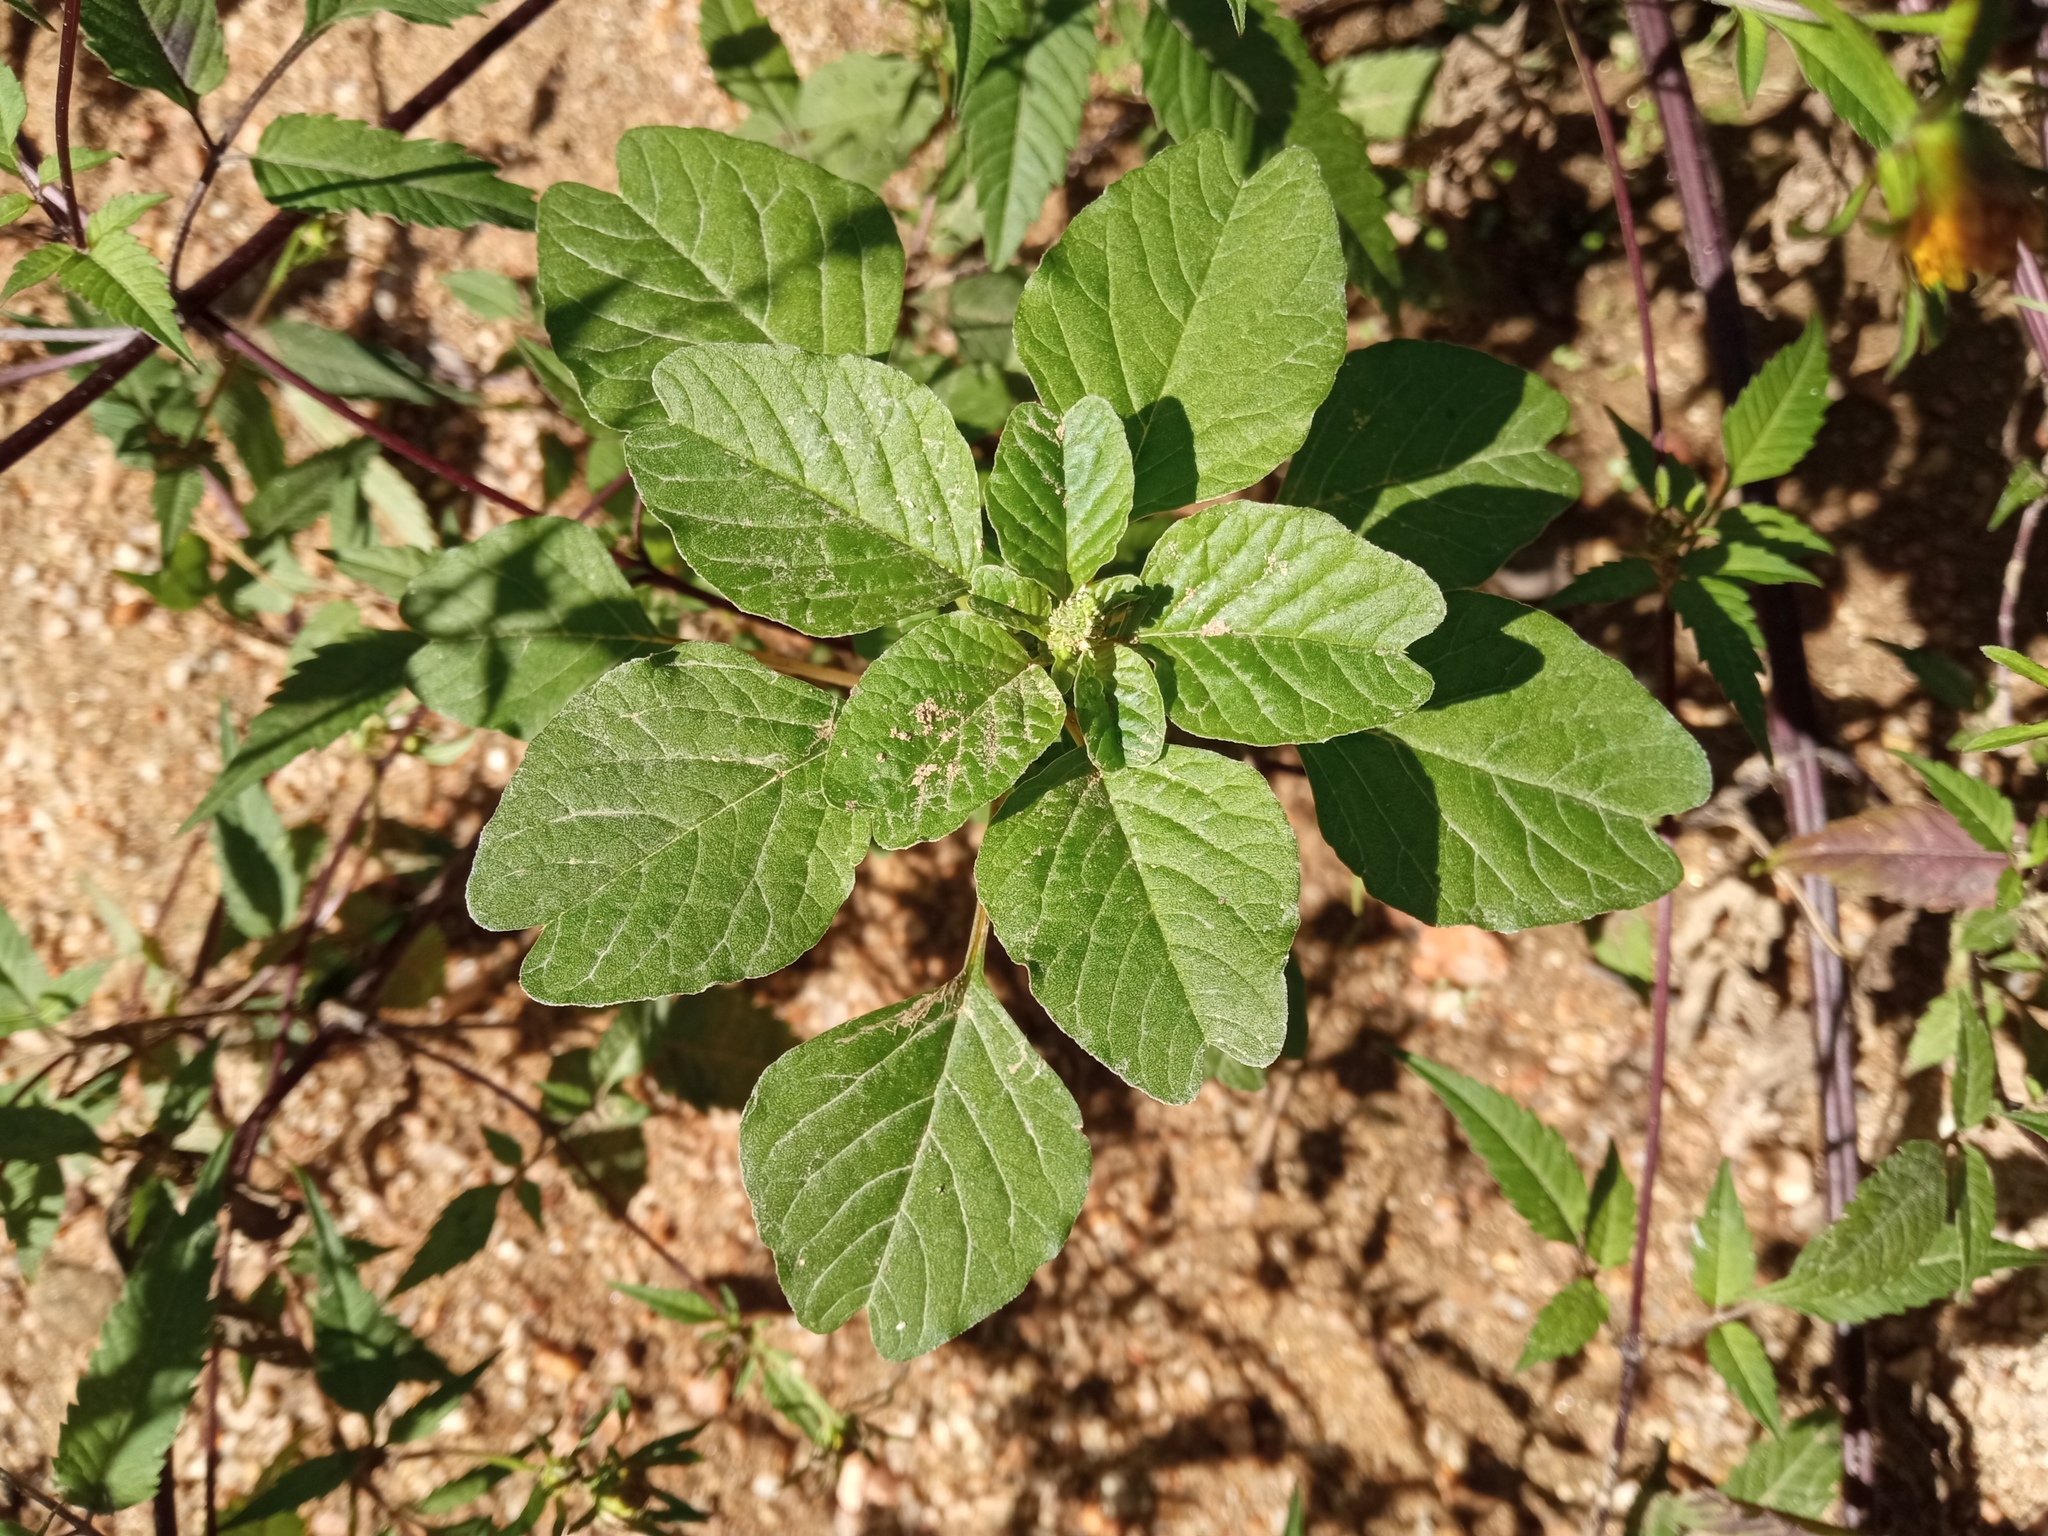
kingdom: Plantae
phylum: Tracheophyta
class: Magnoliopsida
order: Caryophyllales
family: Amaranthaceae
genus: Amaranthus
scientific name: Amaranthus emarginatus
